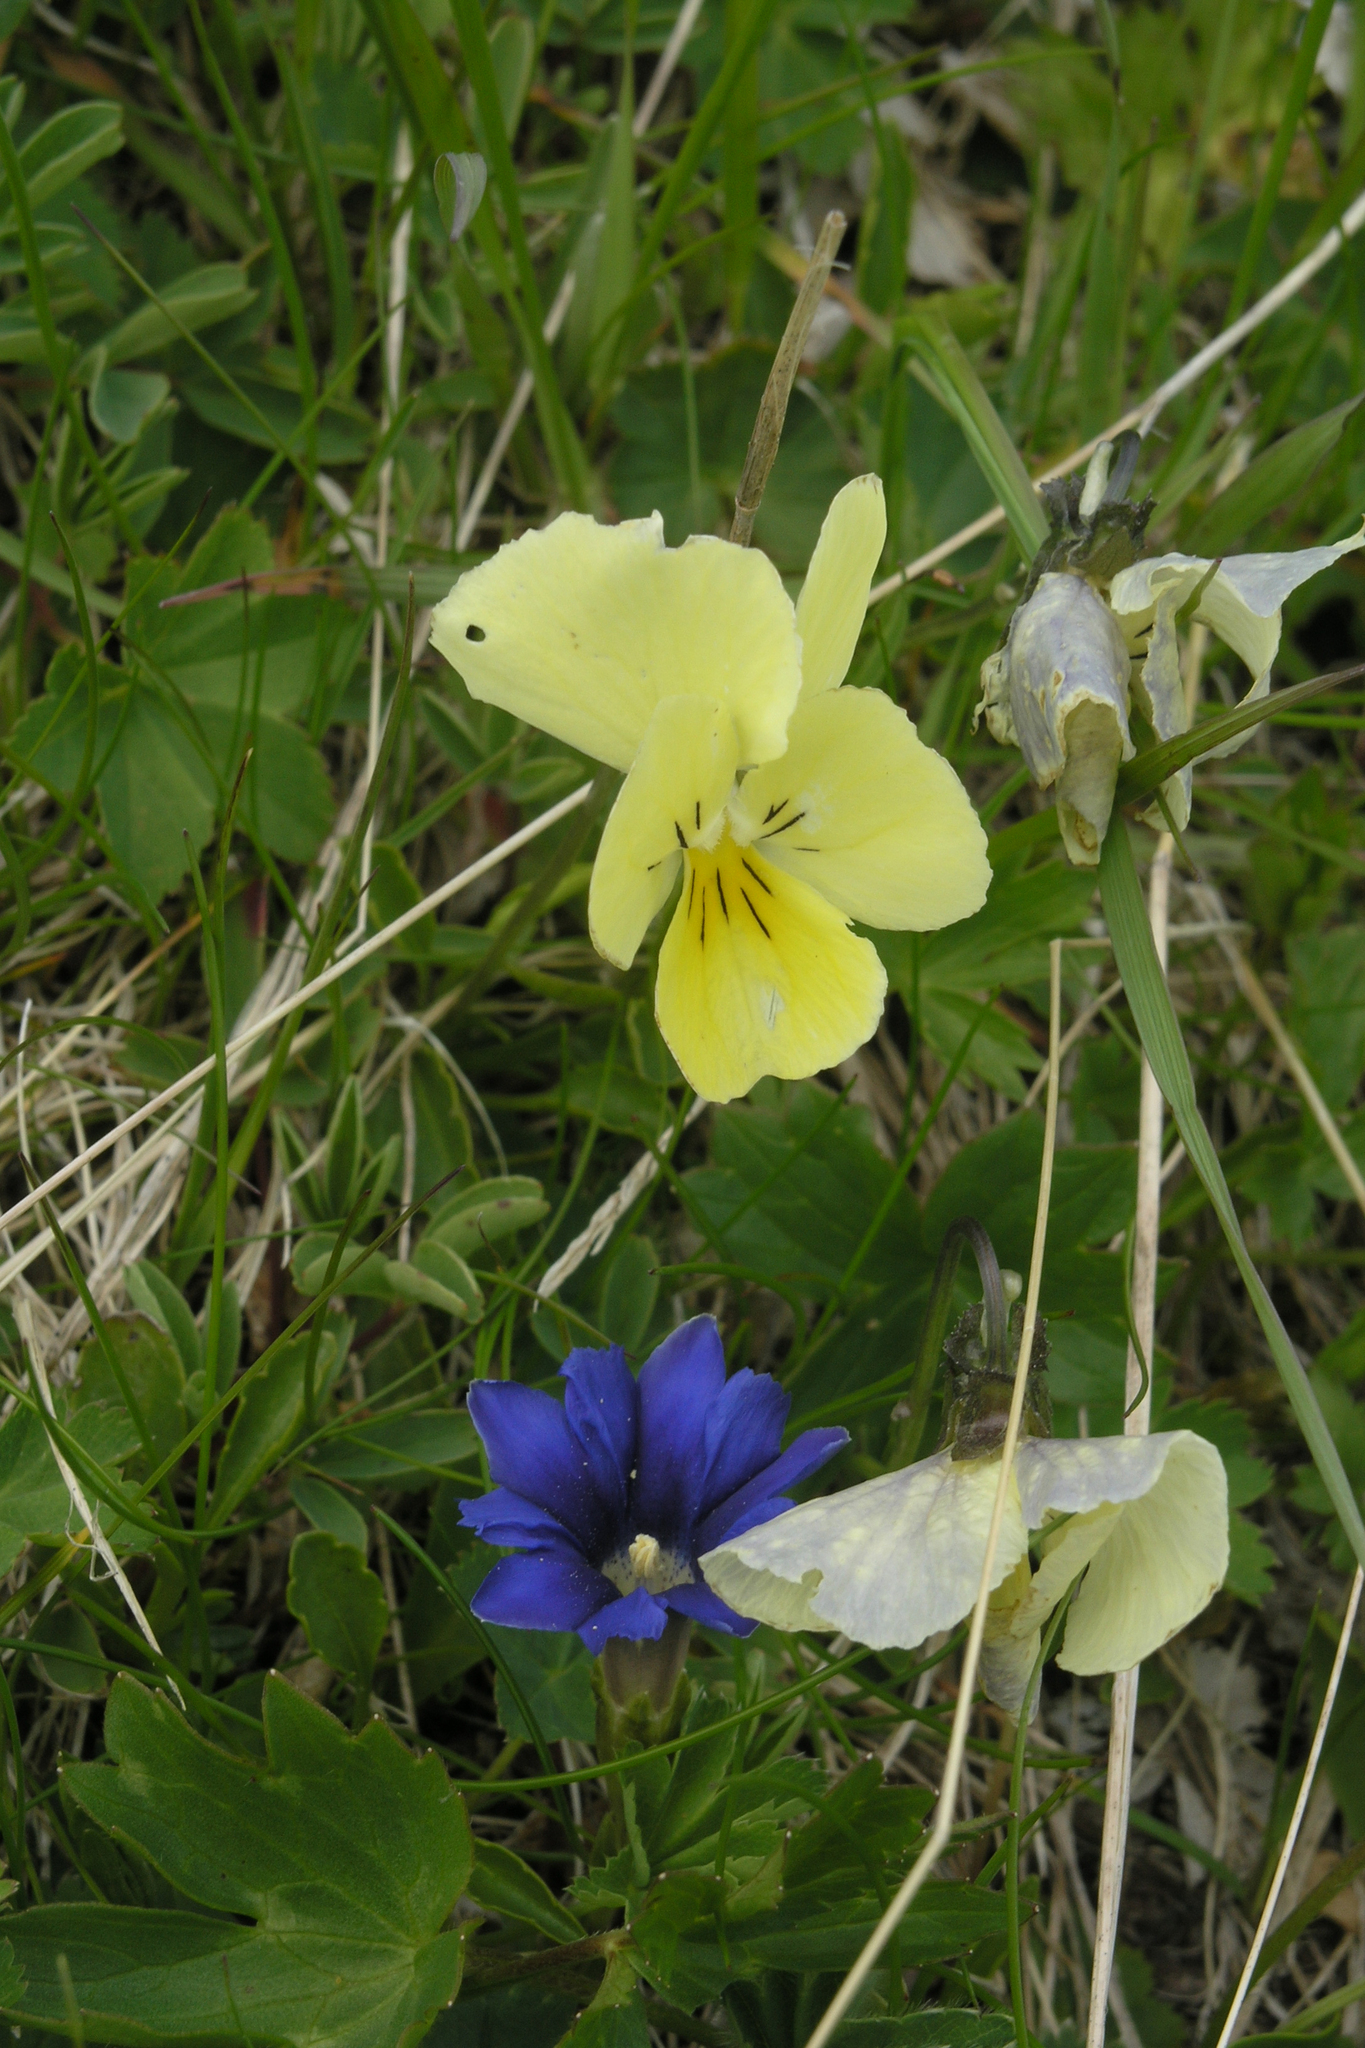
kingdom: Plantae
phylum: Tracheophyta
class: Magnoliopsida
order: Gentianales
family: Gentianaceae
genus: Gentiana
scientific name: Gentiana dshimilensis
